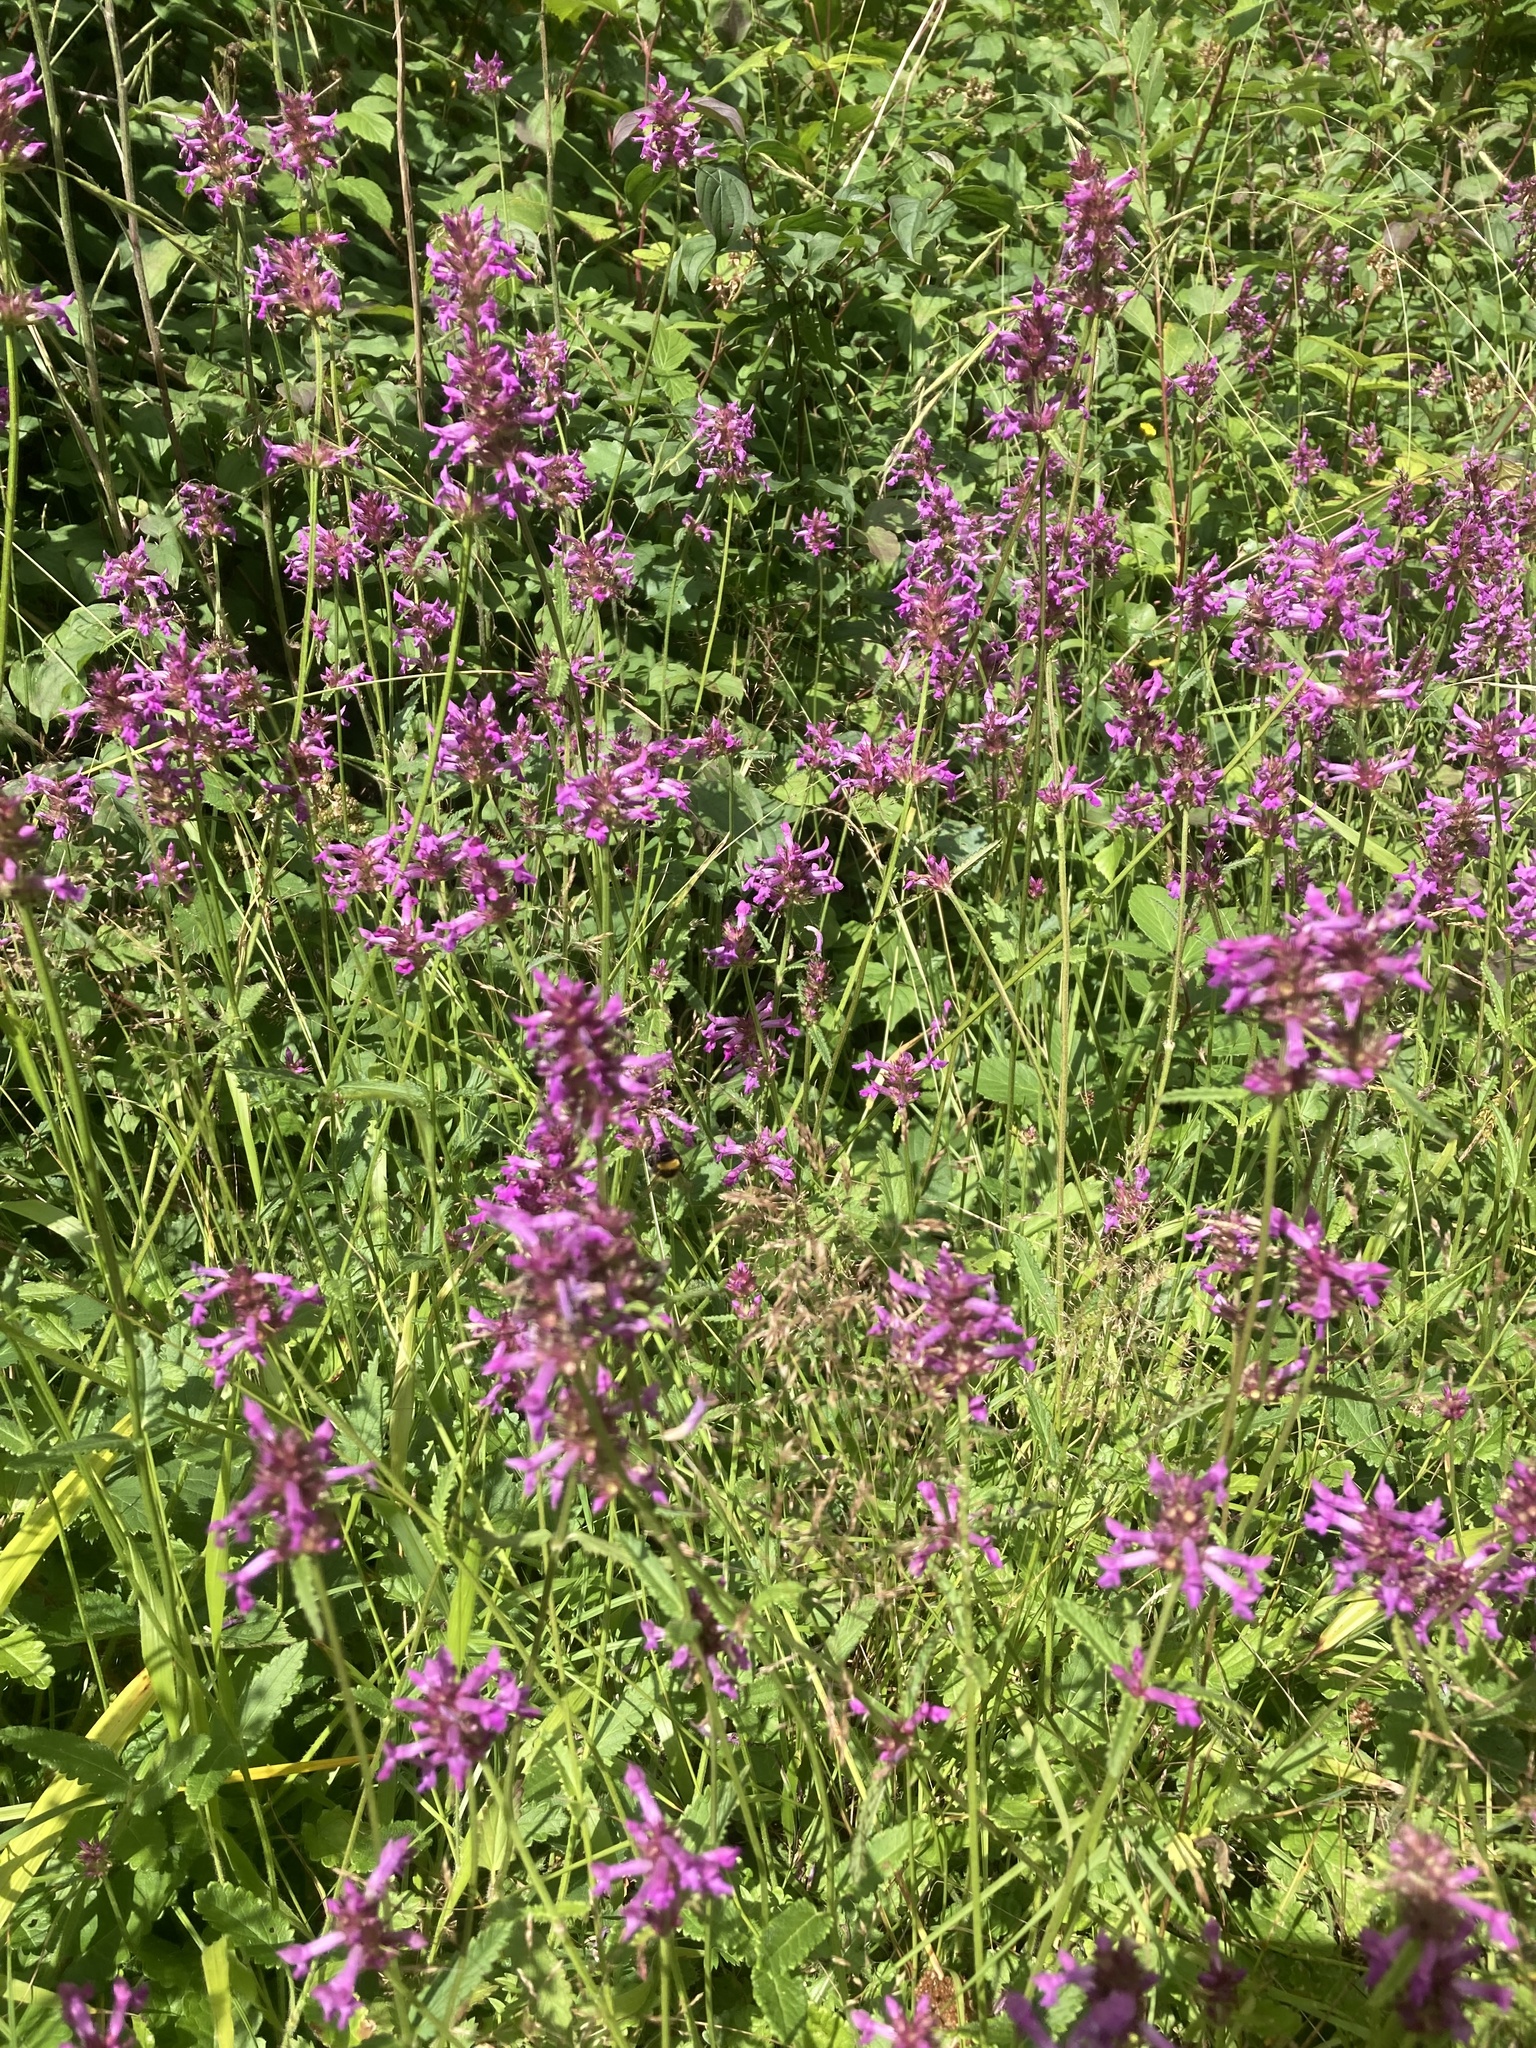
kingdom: Plantae
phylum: Tracheophyta
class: Magnoliopsida
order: Lamiales
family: Lamiaceae
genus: Betonica
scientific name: Betonica officinalis
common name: Bishop's-wort
